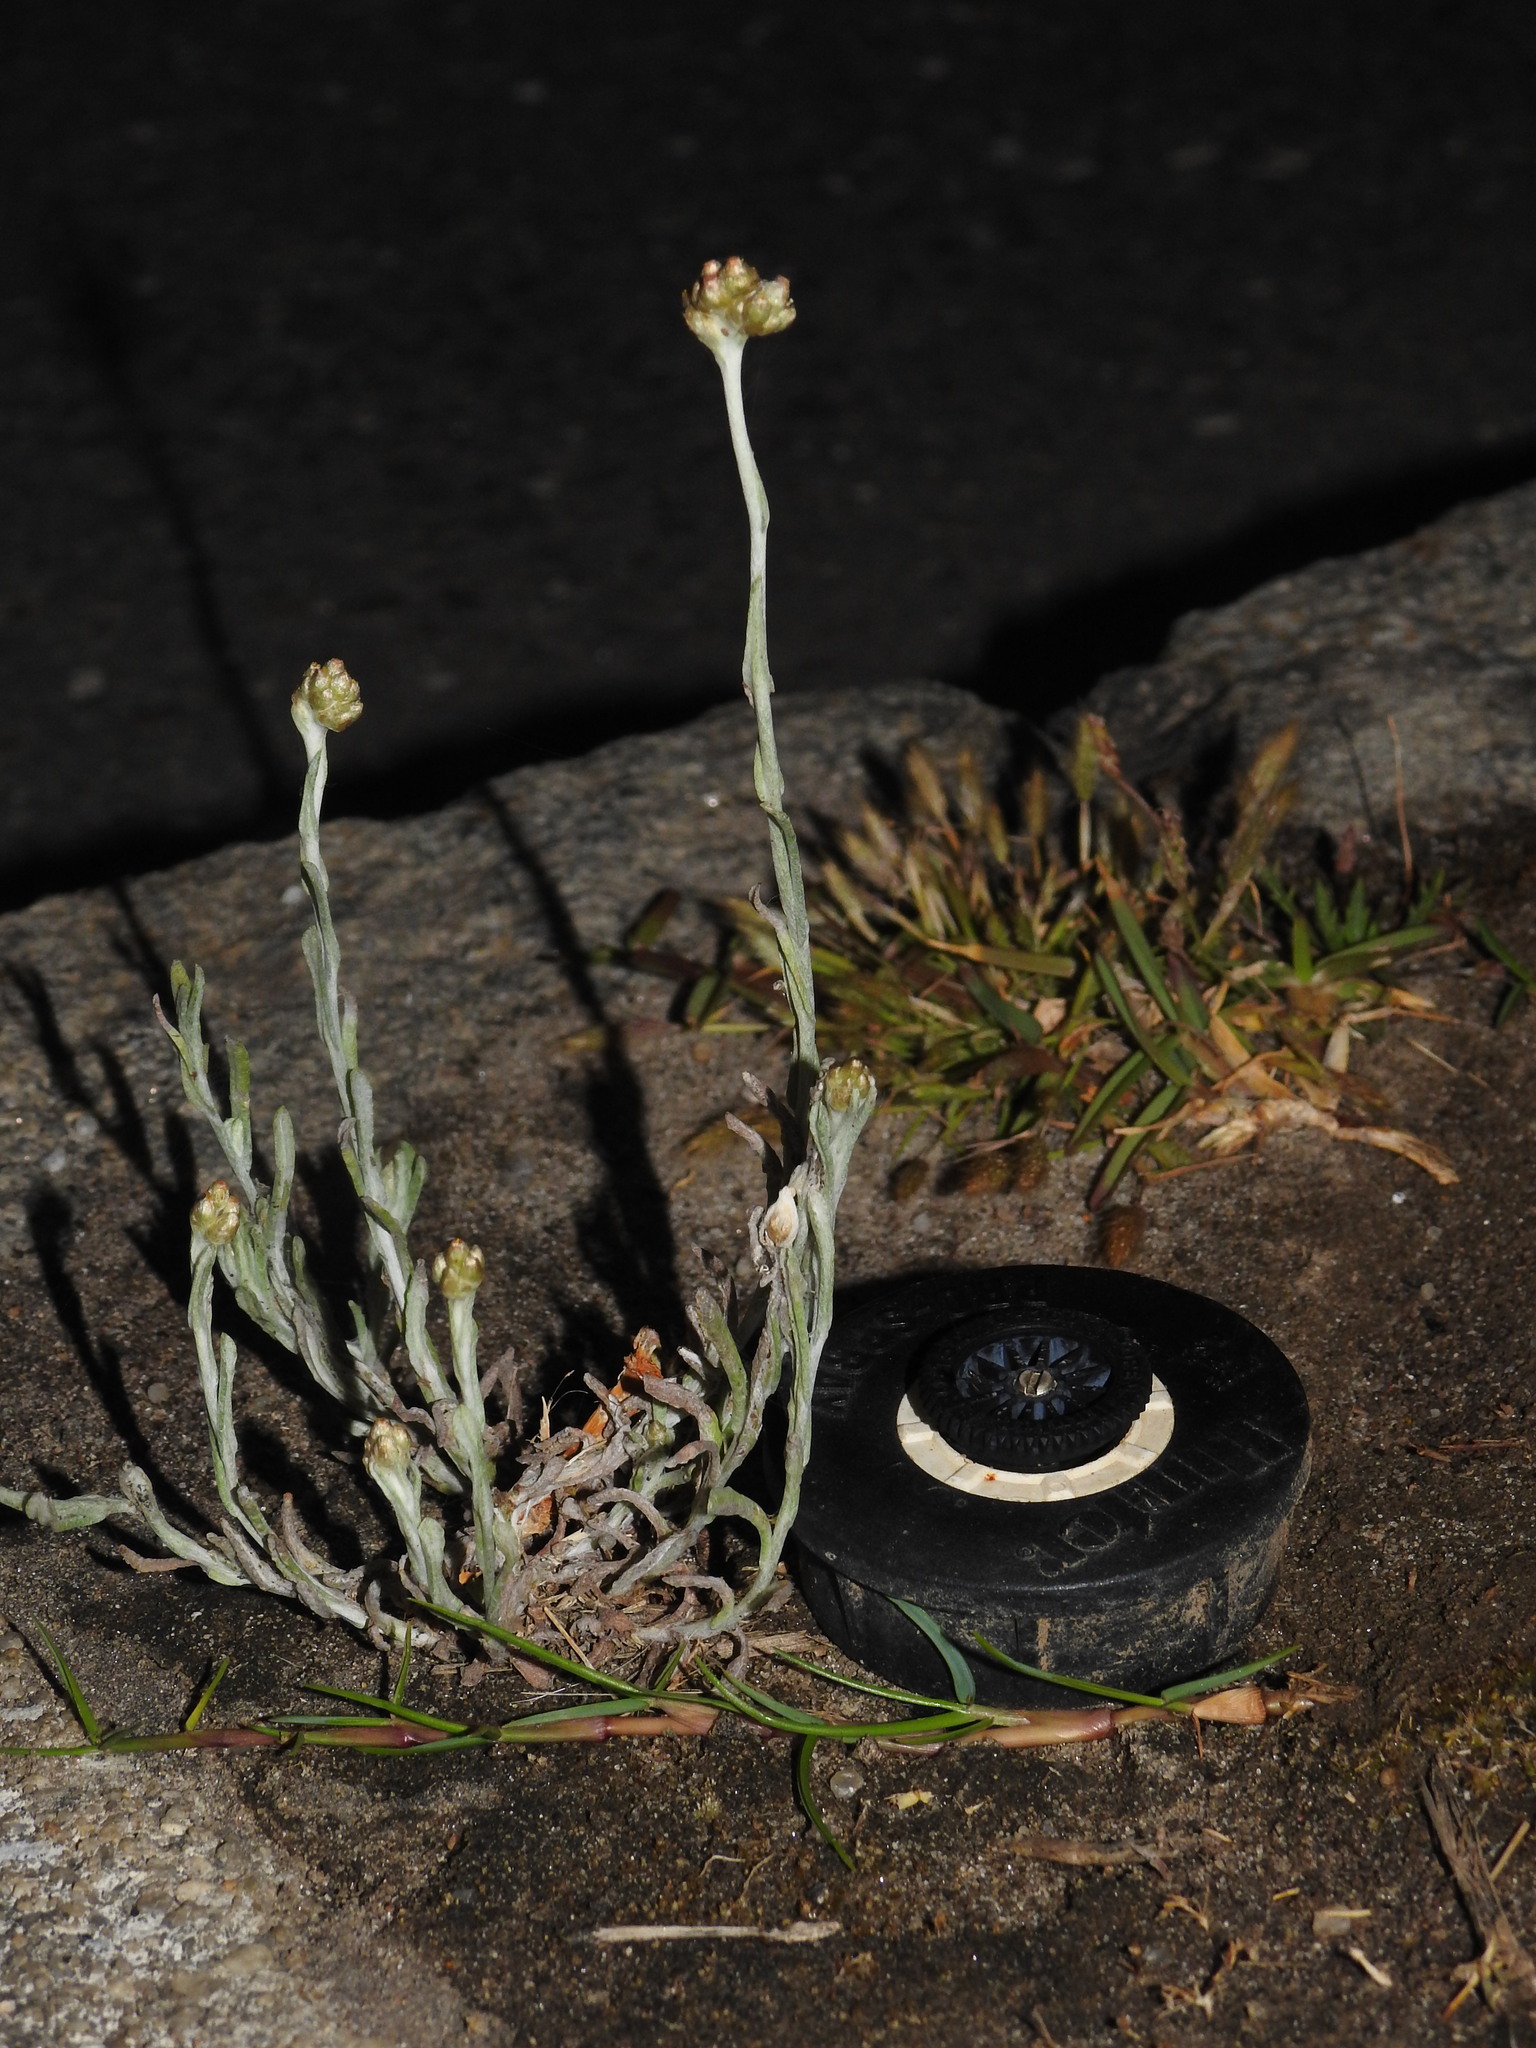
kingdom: Plantae
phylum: Tracheophyta
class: Magnoliopsida
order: Asterales
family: Asteraceae
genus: Helichrysum
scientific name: Helichrysum luteoalbum
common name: Daisy
